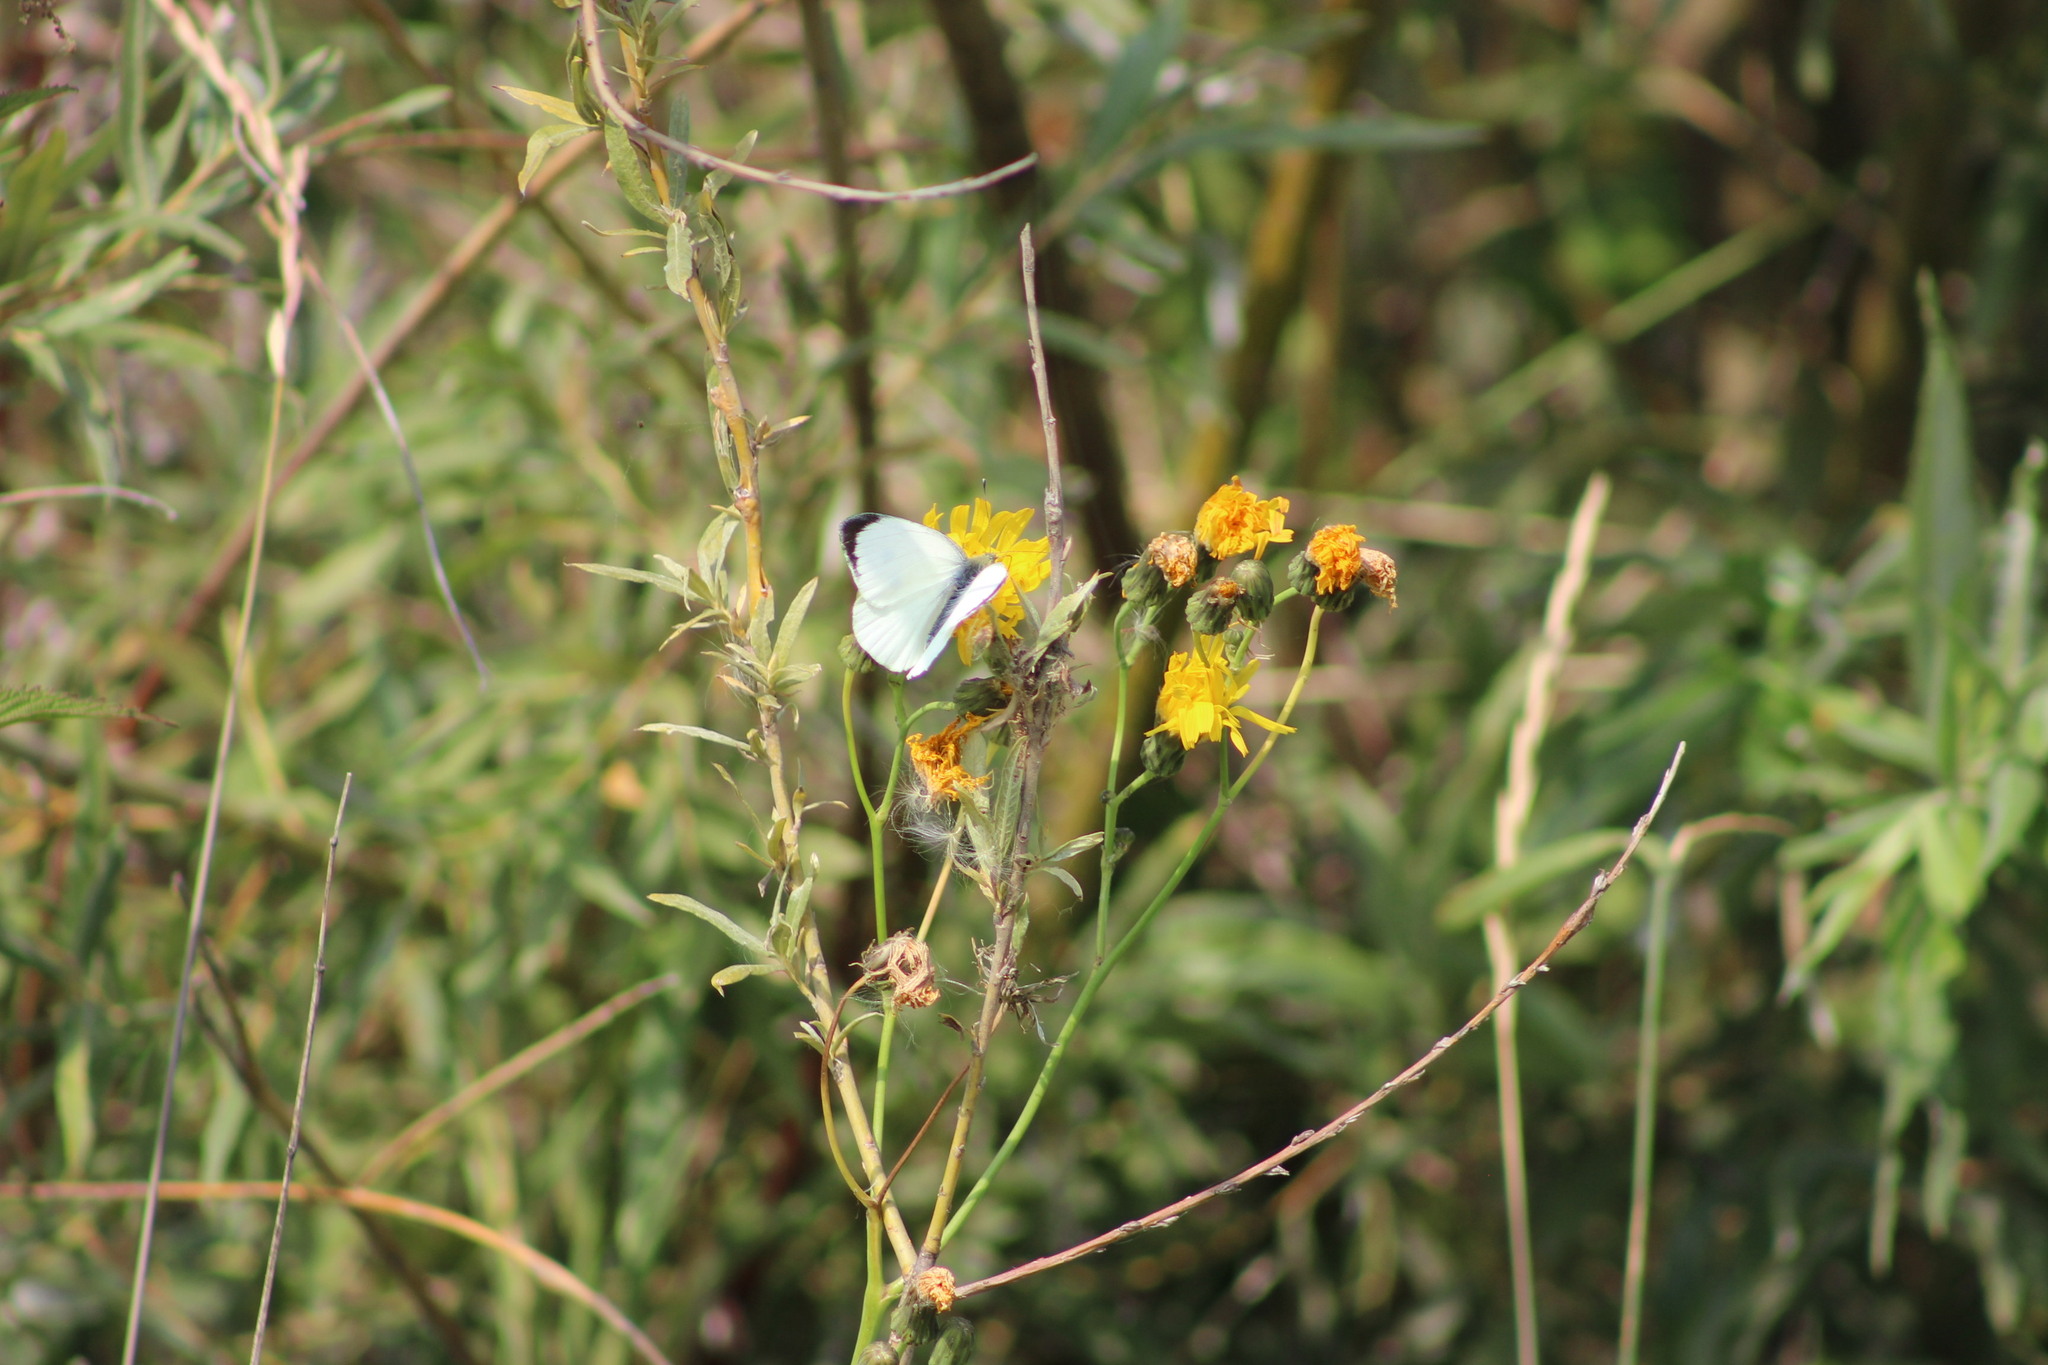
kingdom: Animalia
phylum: Arthropoda
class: Insecta
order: Lepidoptera
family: Pieridae
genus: Pieris
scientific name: Pieris brassicae
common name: Large white
